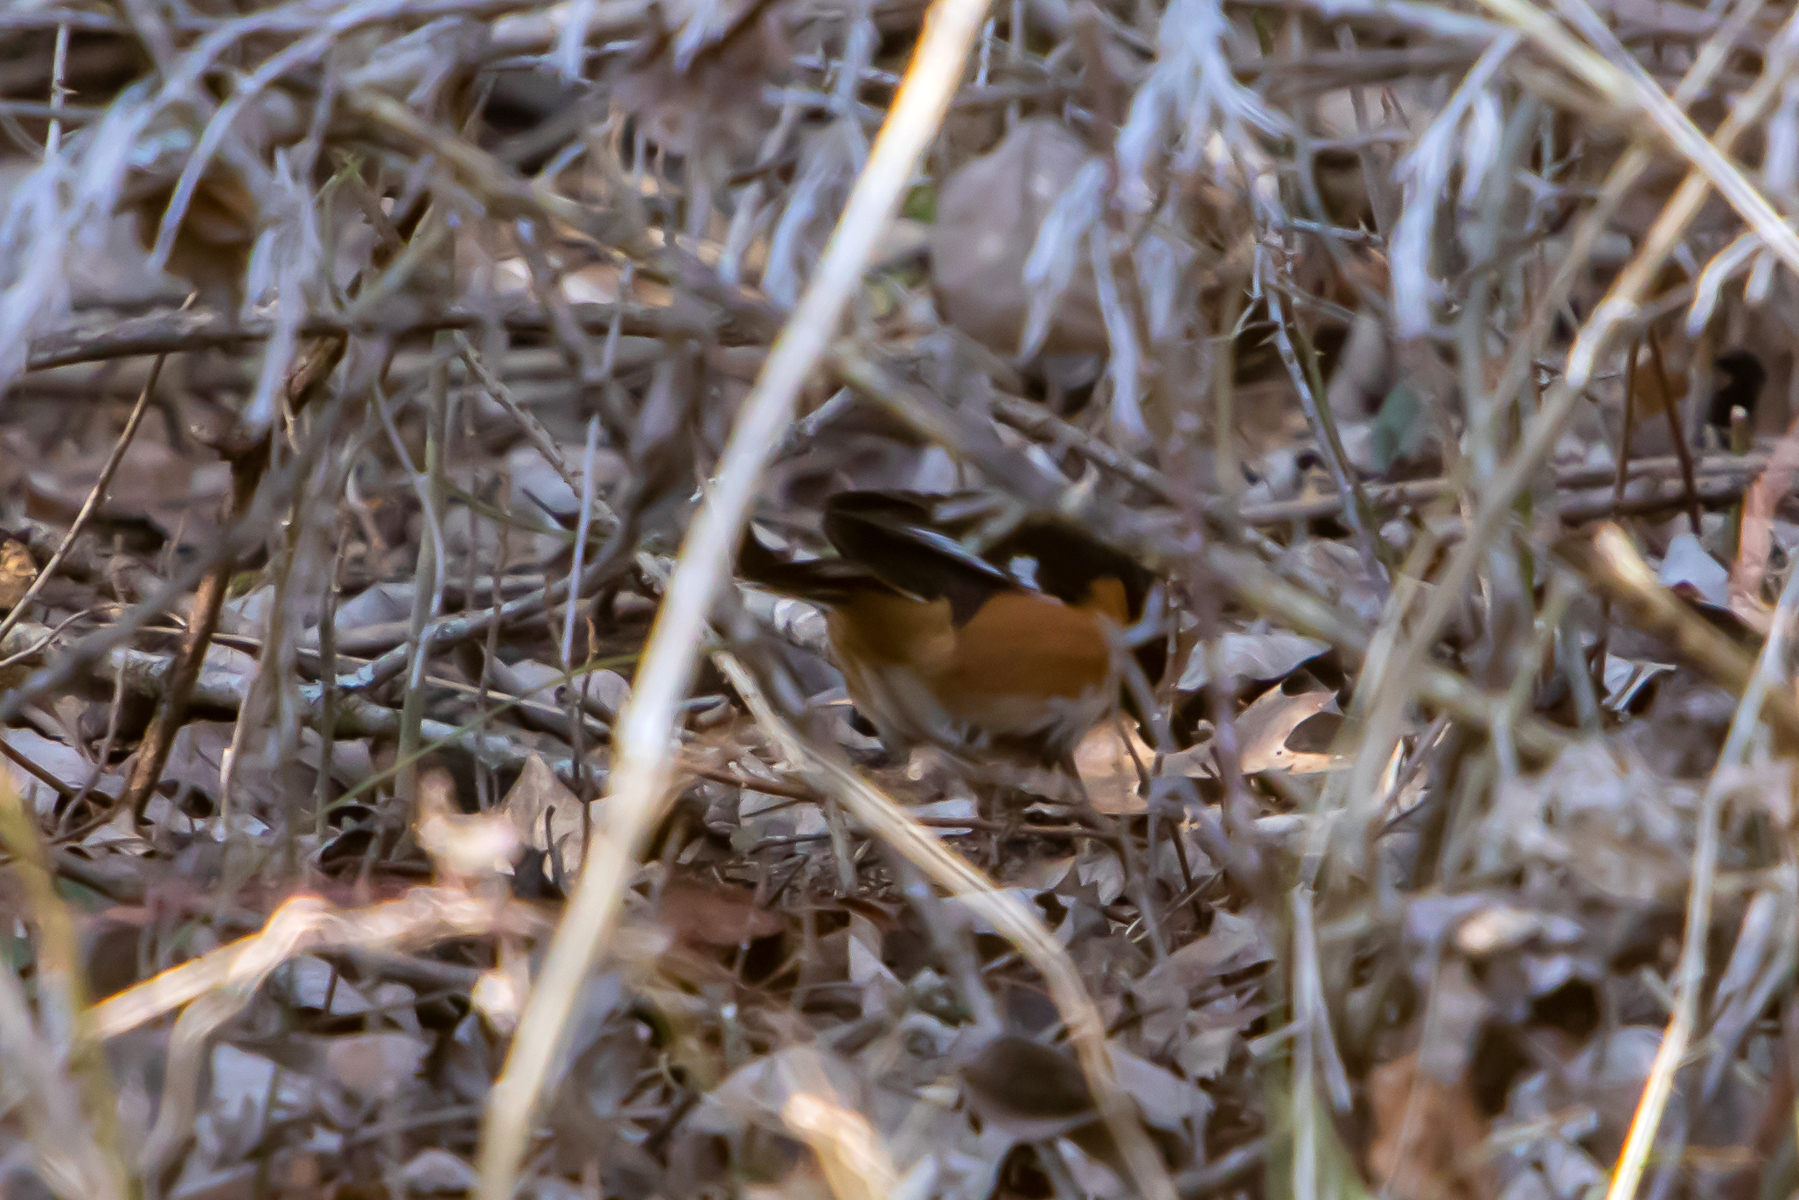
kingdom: Animalia
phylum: Chordata
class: Aves
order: Passeriformes
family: Passerellidae
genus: Pipilo
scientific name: Pipilo erythrophthalmus
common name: Eastern towhee
